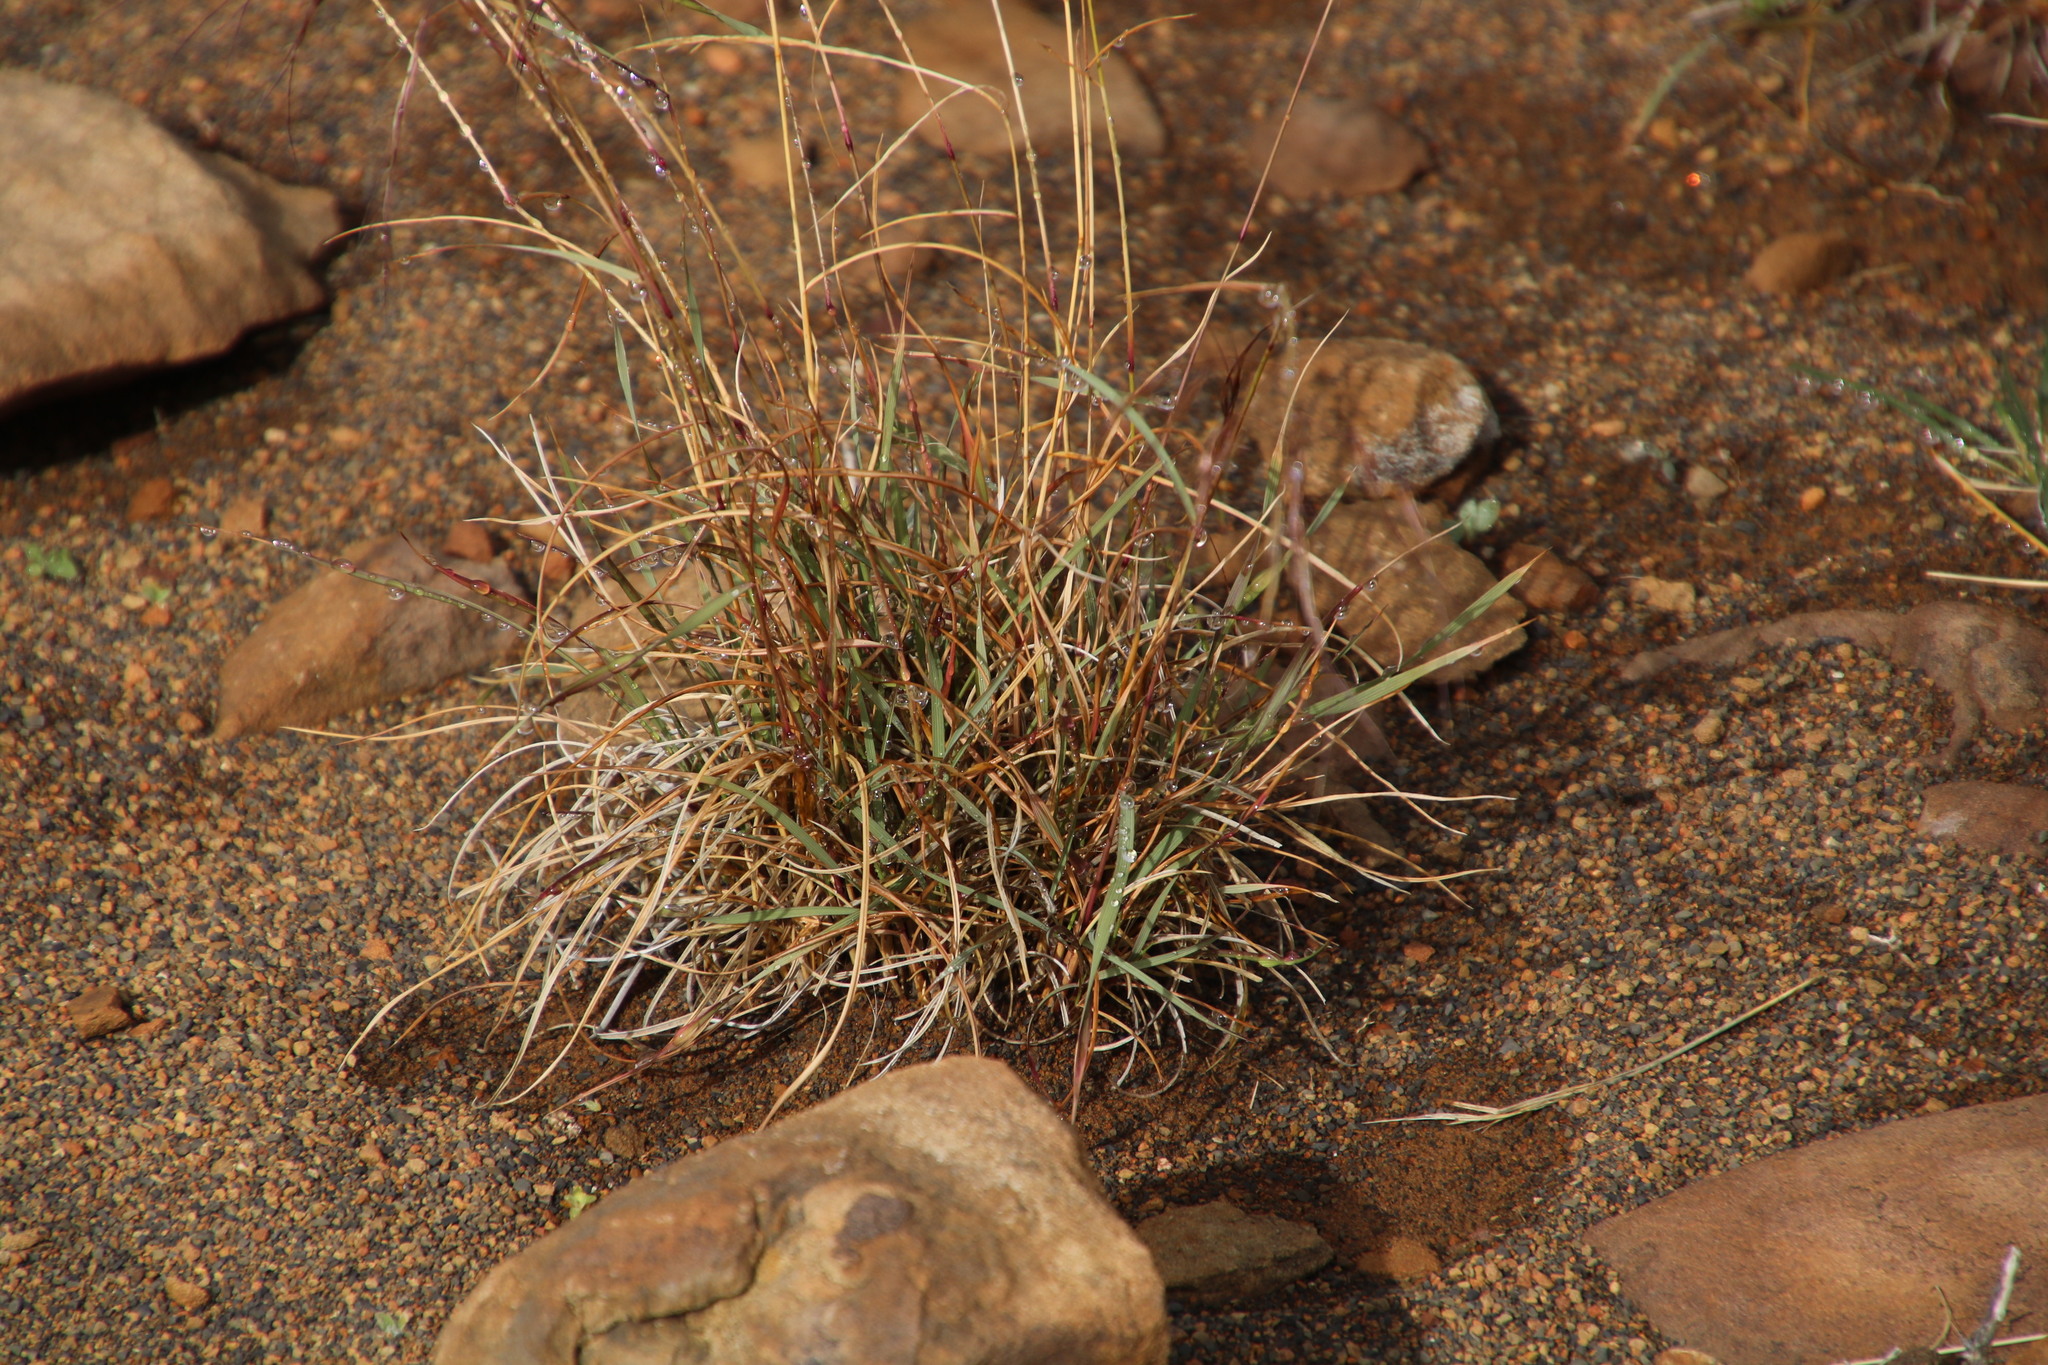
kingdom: Plantae
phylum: Tracheophyta
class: Liliopsida
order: Poales
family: Poaceae
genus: Aristida
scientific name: Aristida diffusa
